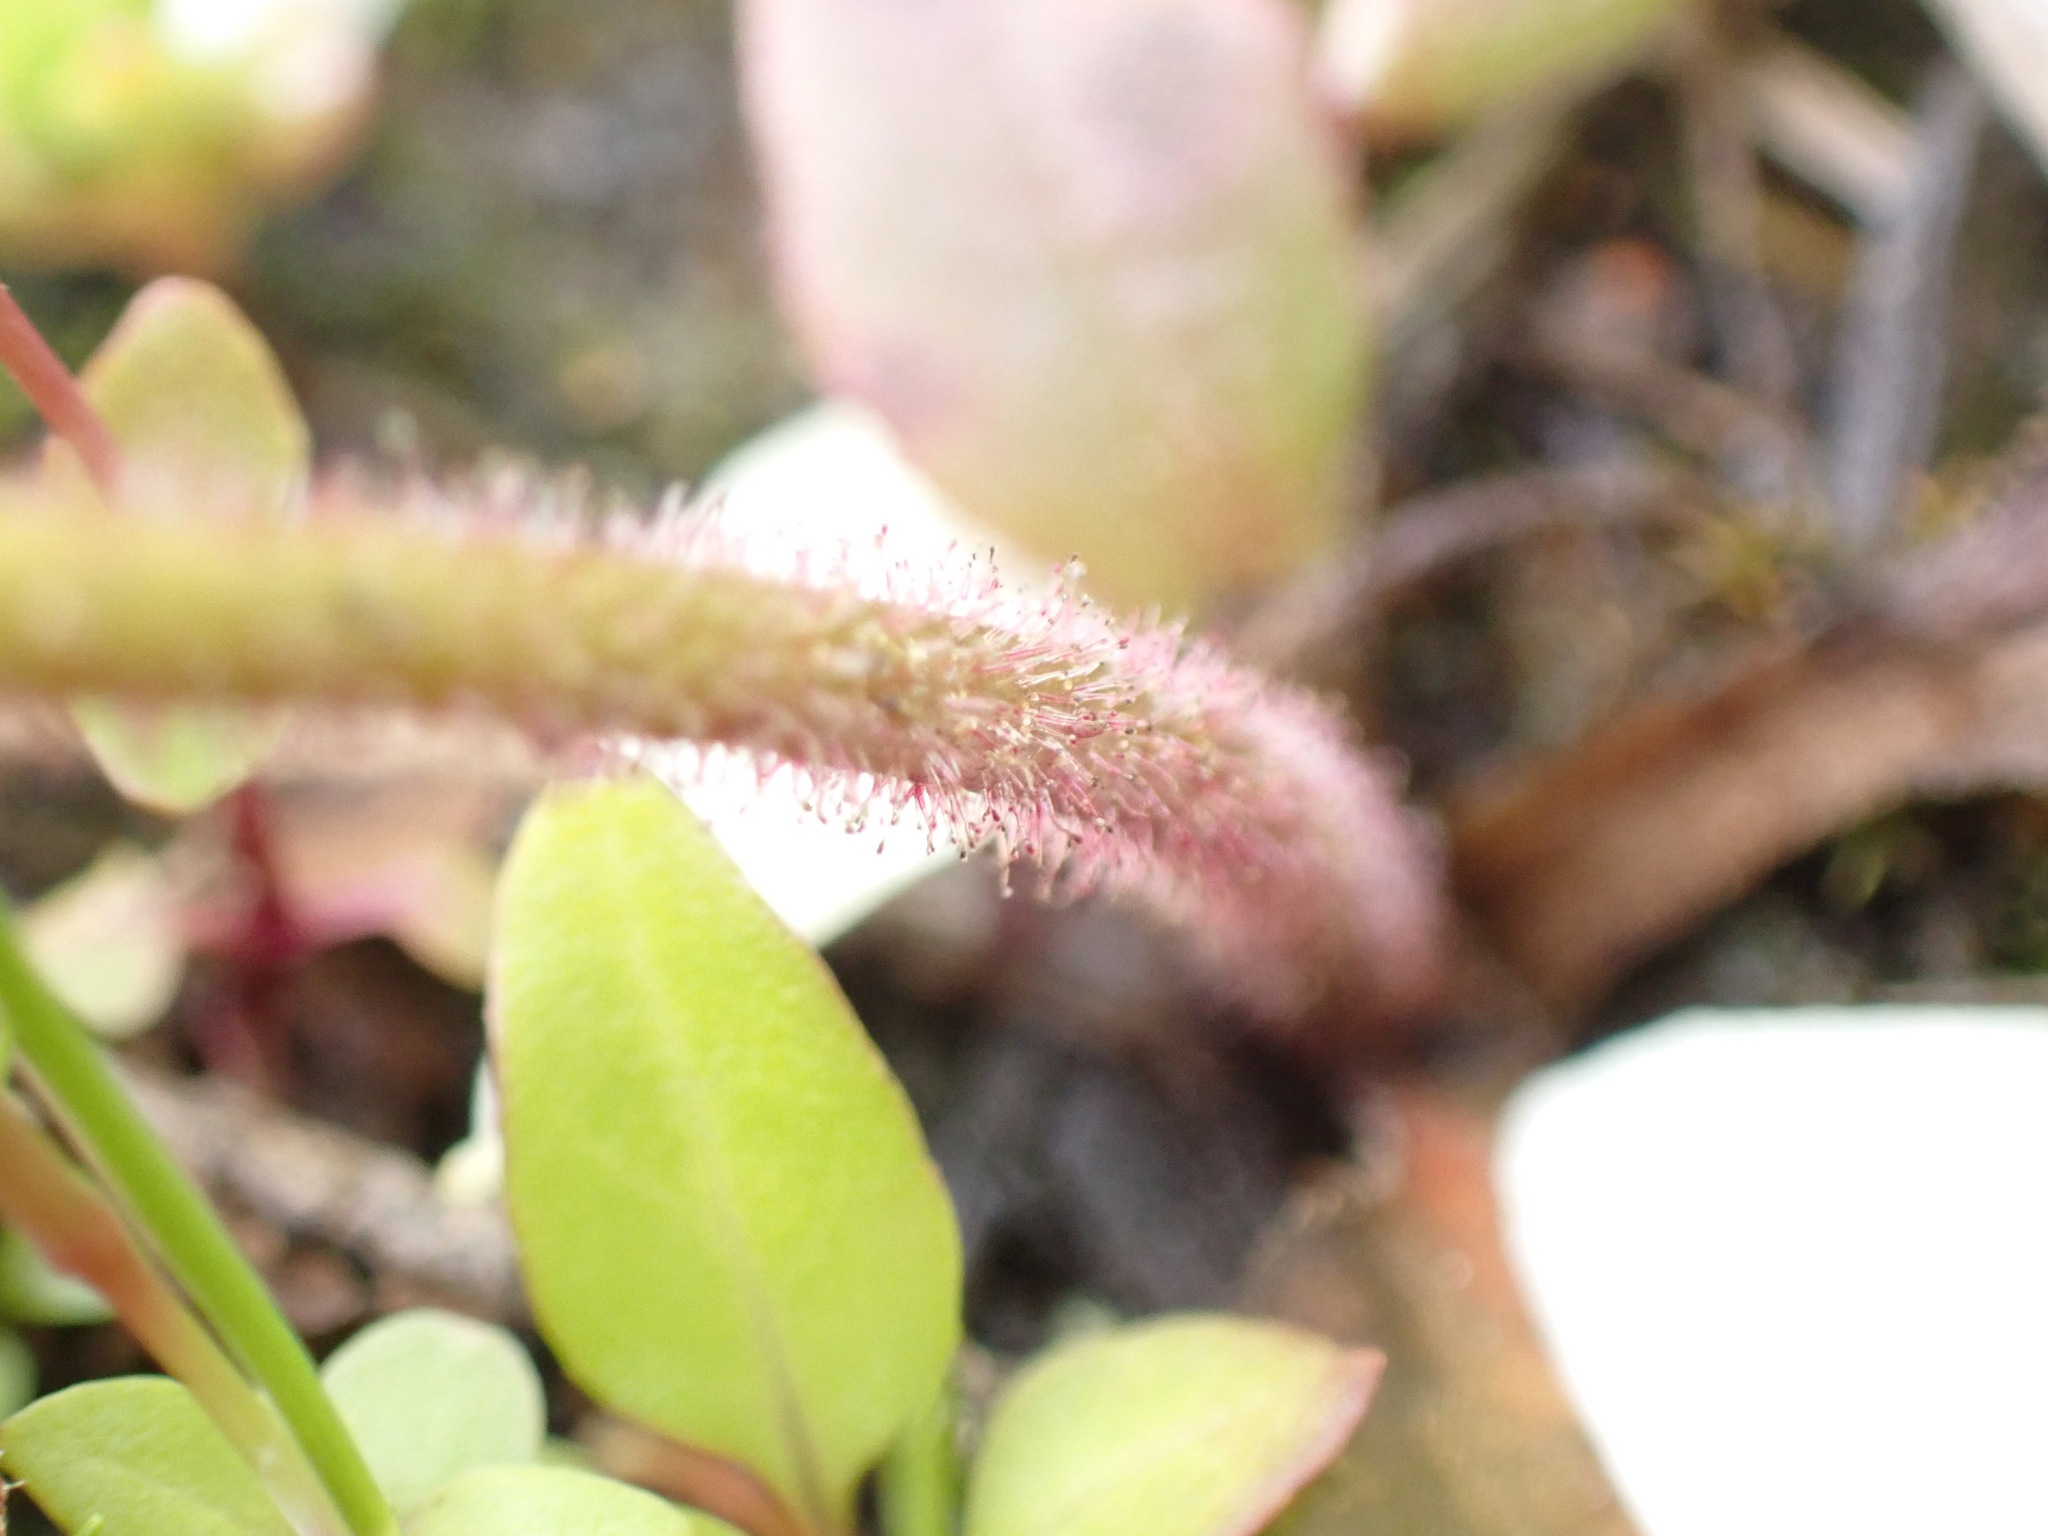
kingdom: Plantae
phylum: Tracheophyta
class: Magnoliopsida
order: Saxifragales
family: Saxifragaceae
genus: Micranthes
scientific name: Micranthes integrifolia
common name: Wholeleaf saxifrage
